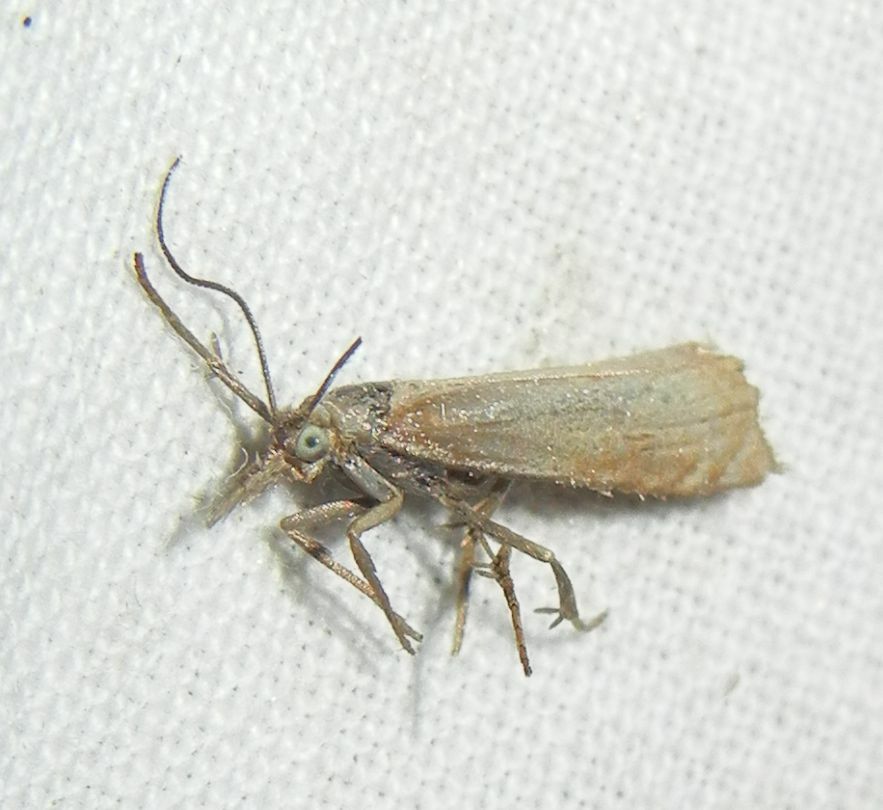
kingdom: Animalia
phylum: Arthropoda
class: Insecta
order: Lepidoptera
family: Crambidae
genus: Chrysoteuchia
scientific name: Chrysoteuchia culmella
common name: Garden grass-veneer
